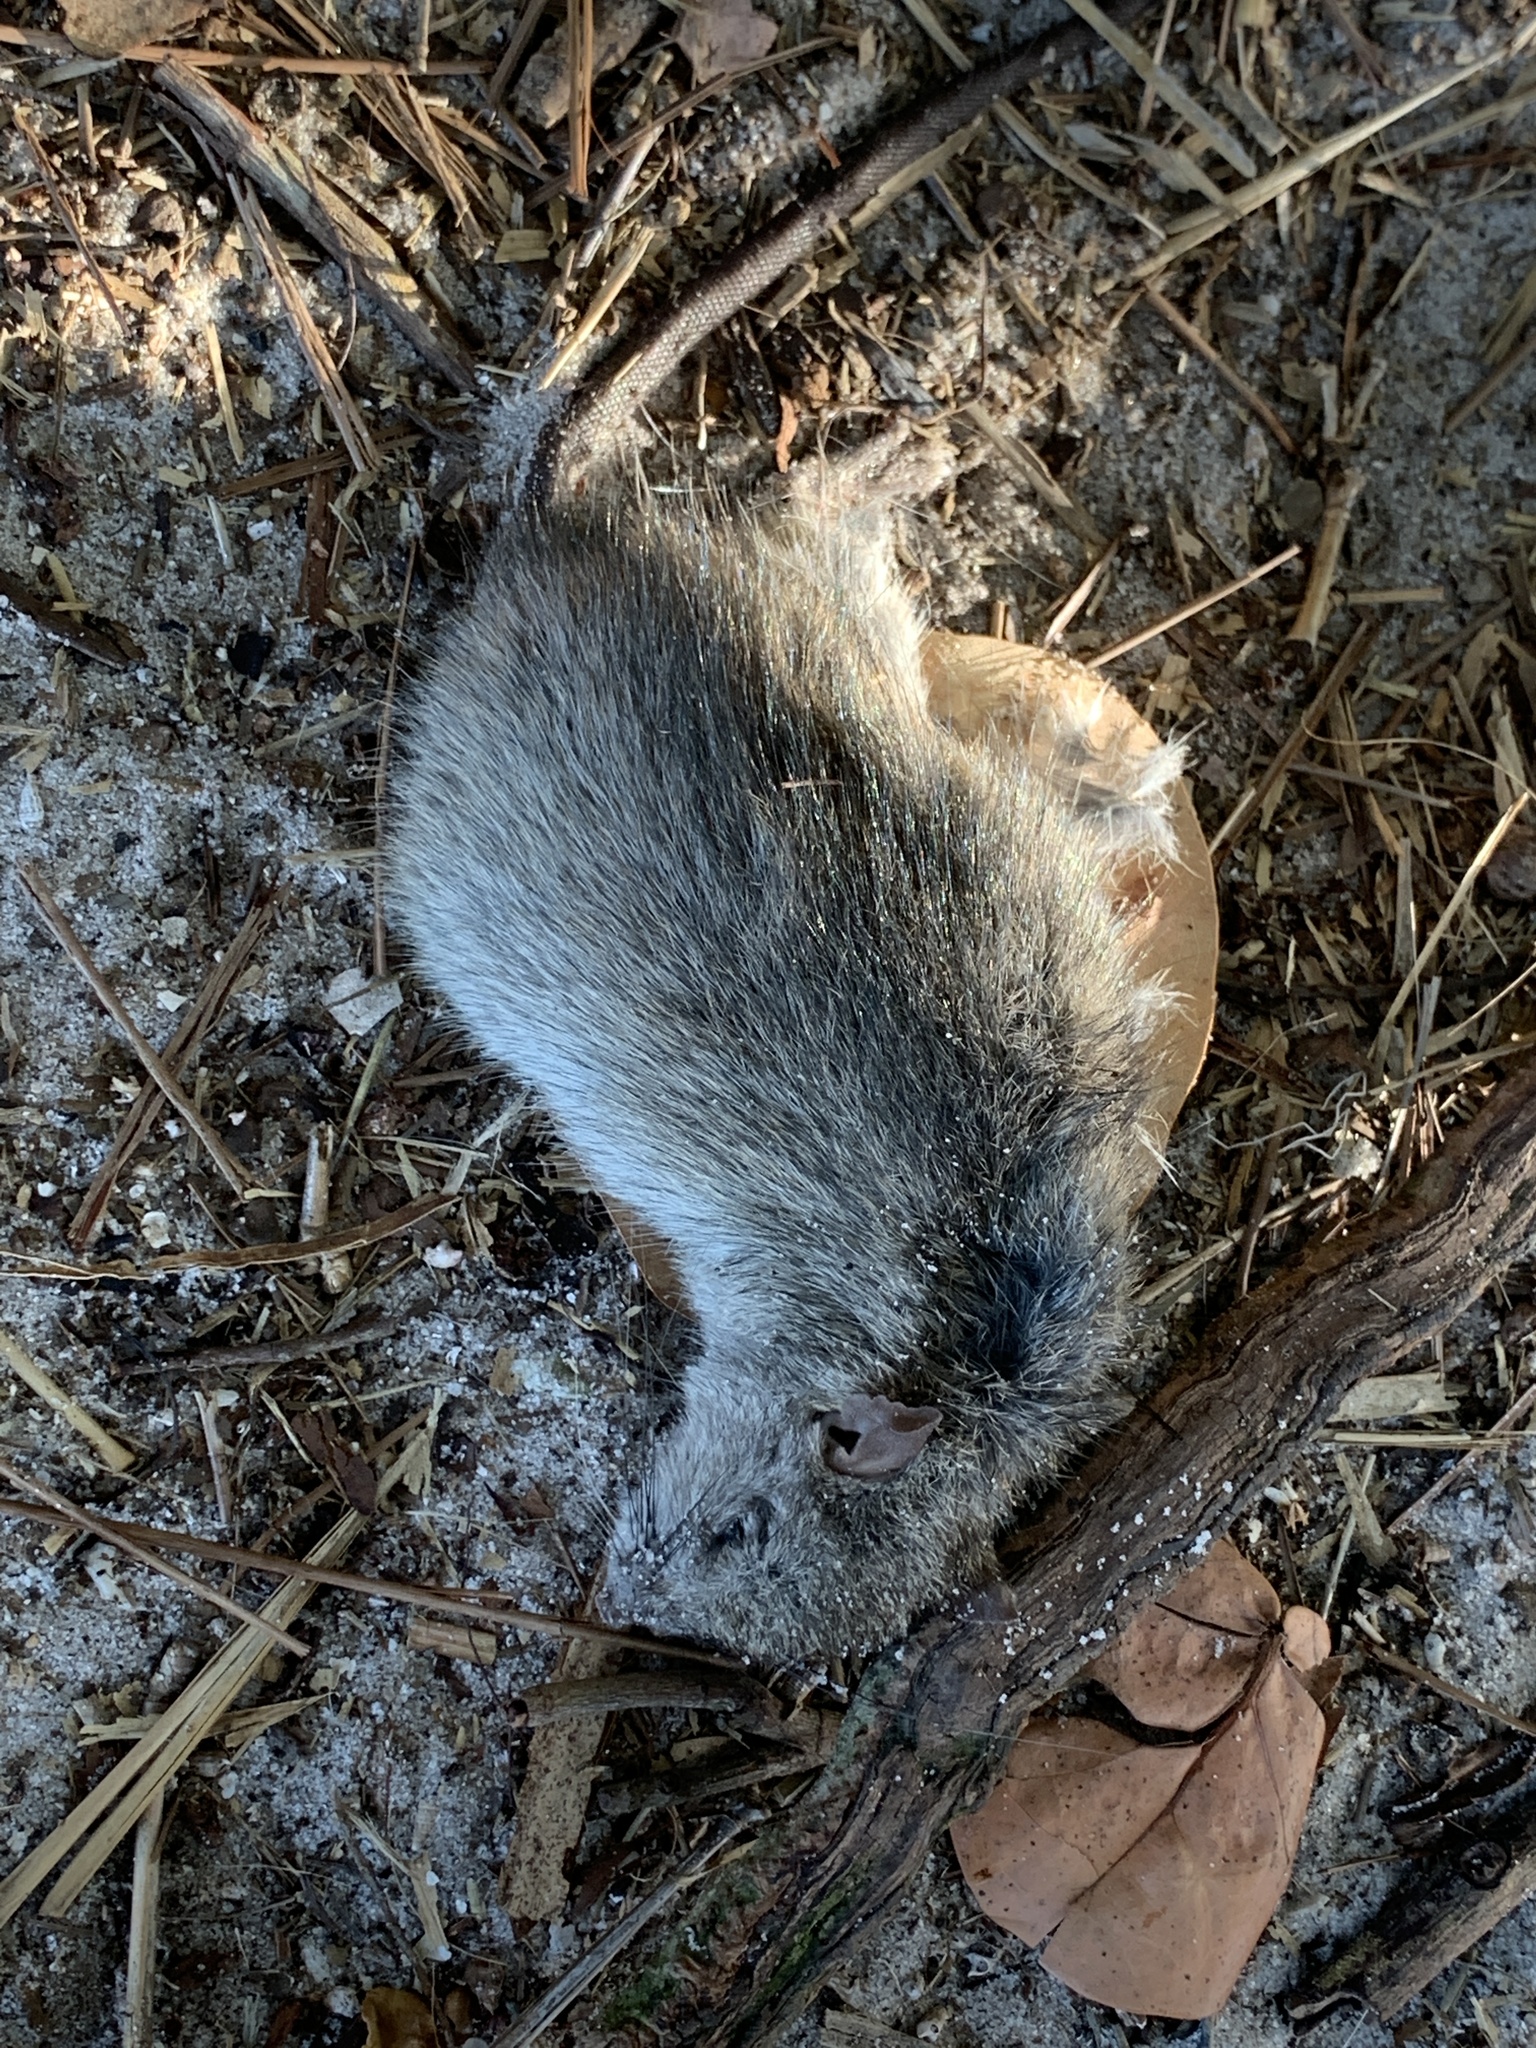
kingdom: Animalia
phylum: Chordata
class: Mammalia
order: Rodentia
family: Cricetidae
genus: Sigmodon
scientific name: Sigmodon hispidus
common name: Hispid cotton rat
